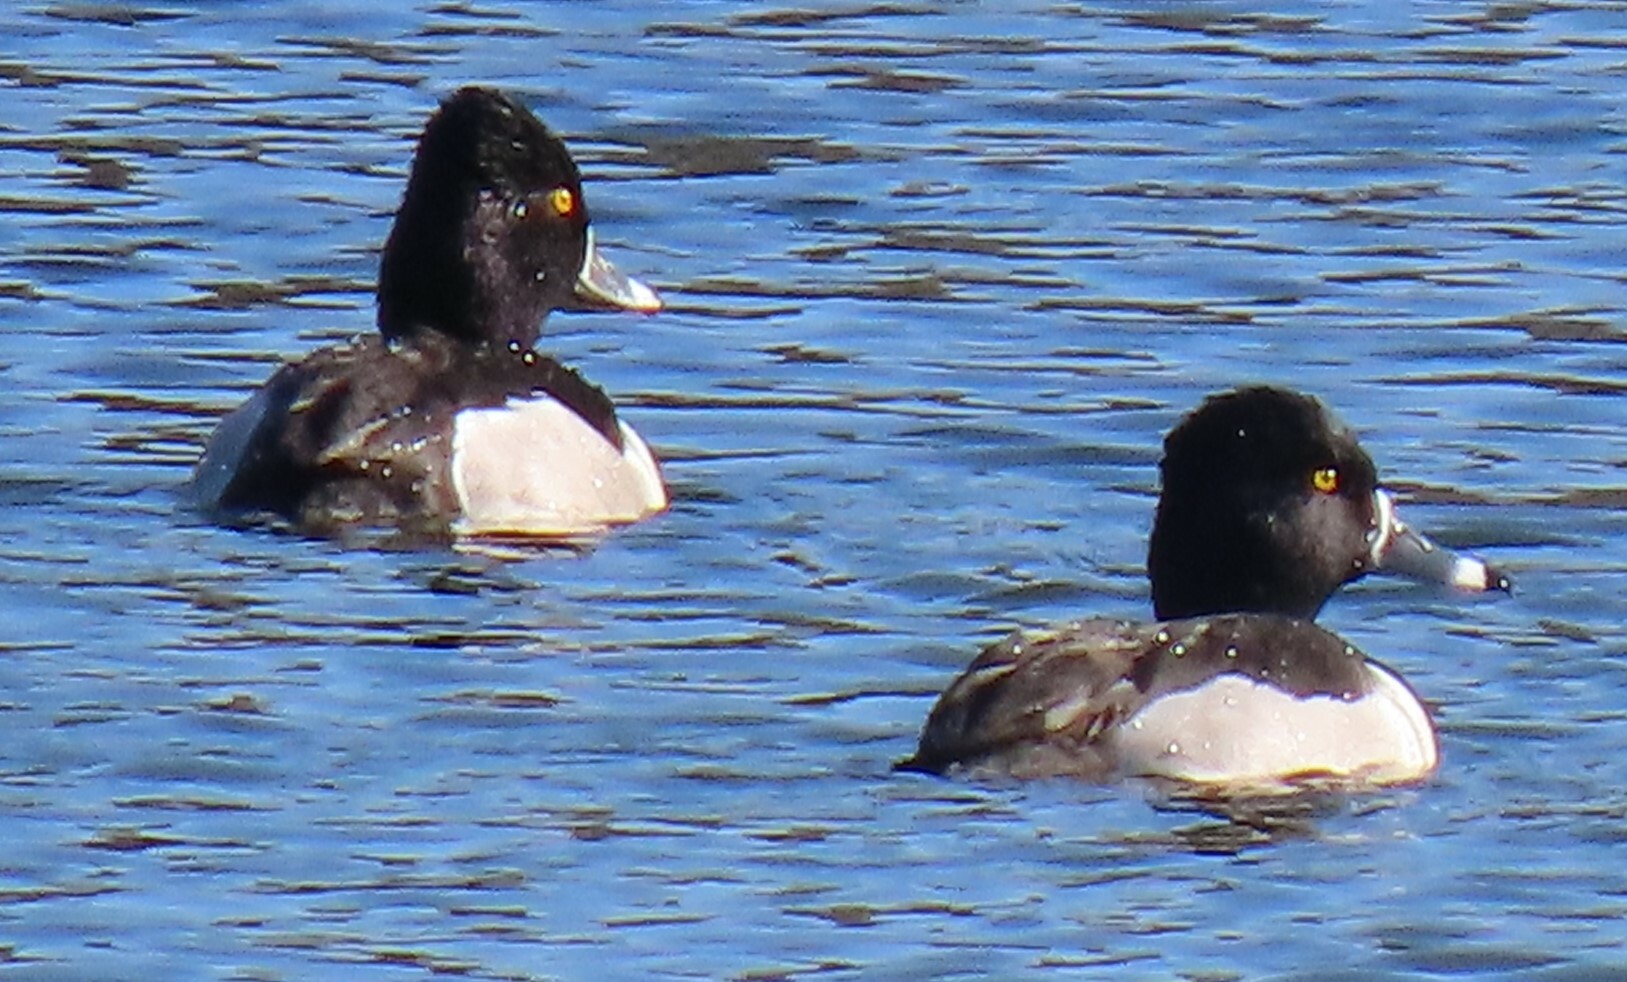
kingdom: Animalia
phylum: Chordata
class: Aves
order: Anseriformes
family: Anatidae
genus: Aythya
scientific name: Aythya collaris
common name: Ring-necked duck
